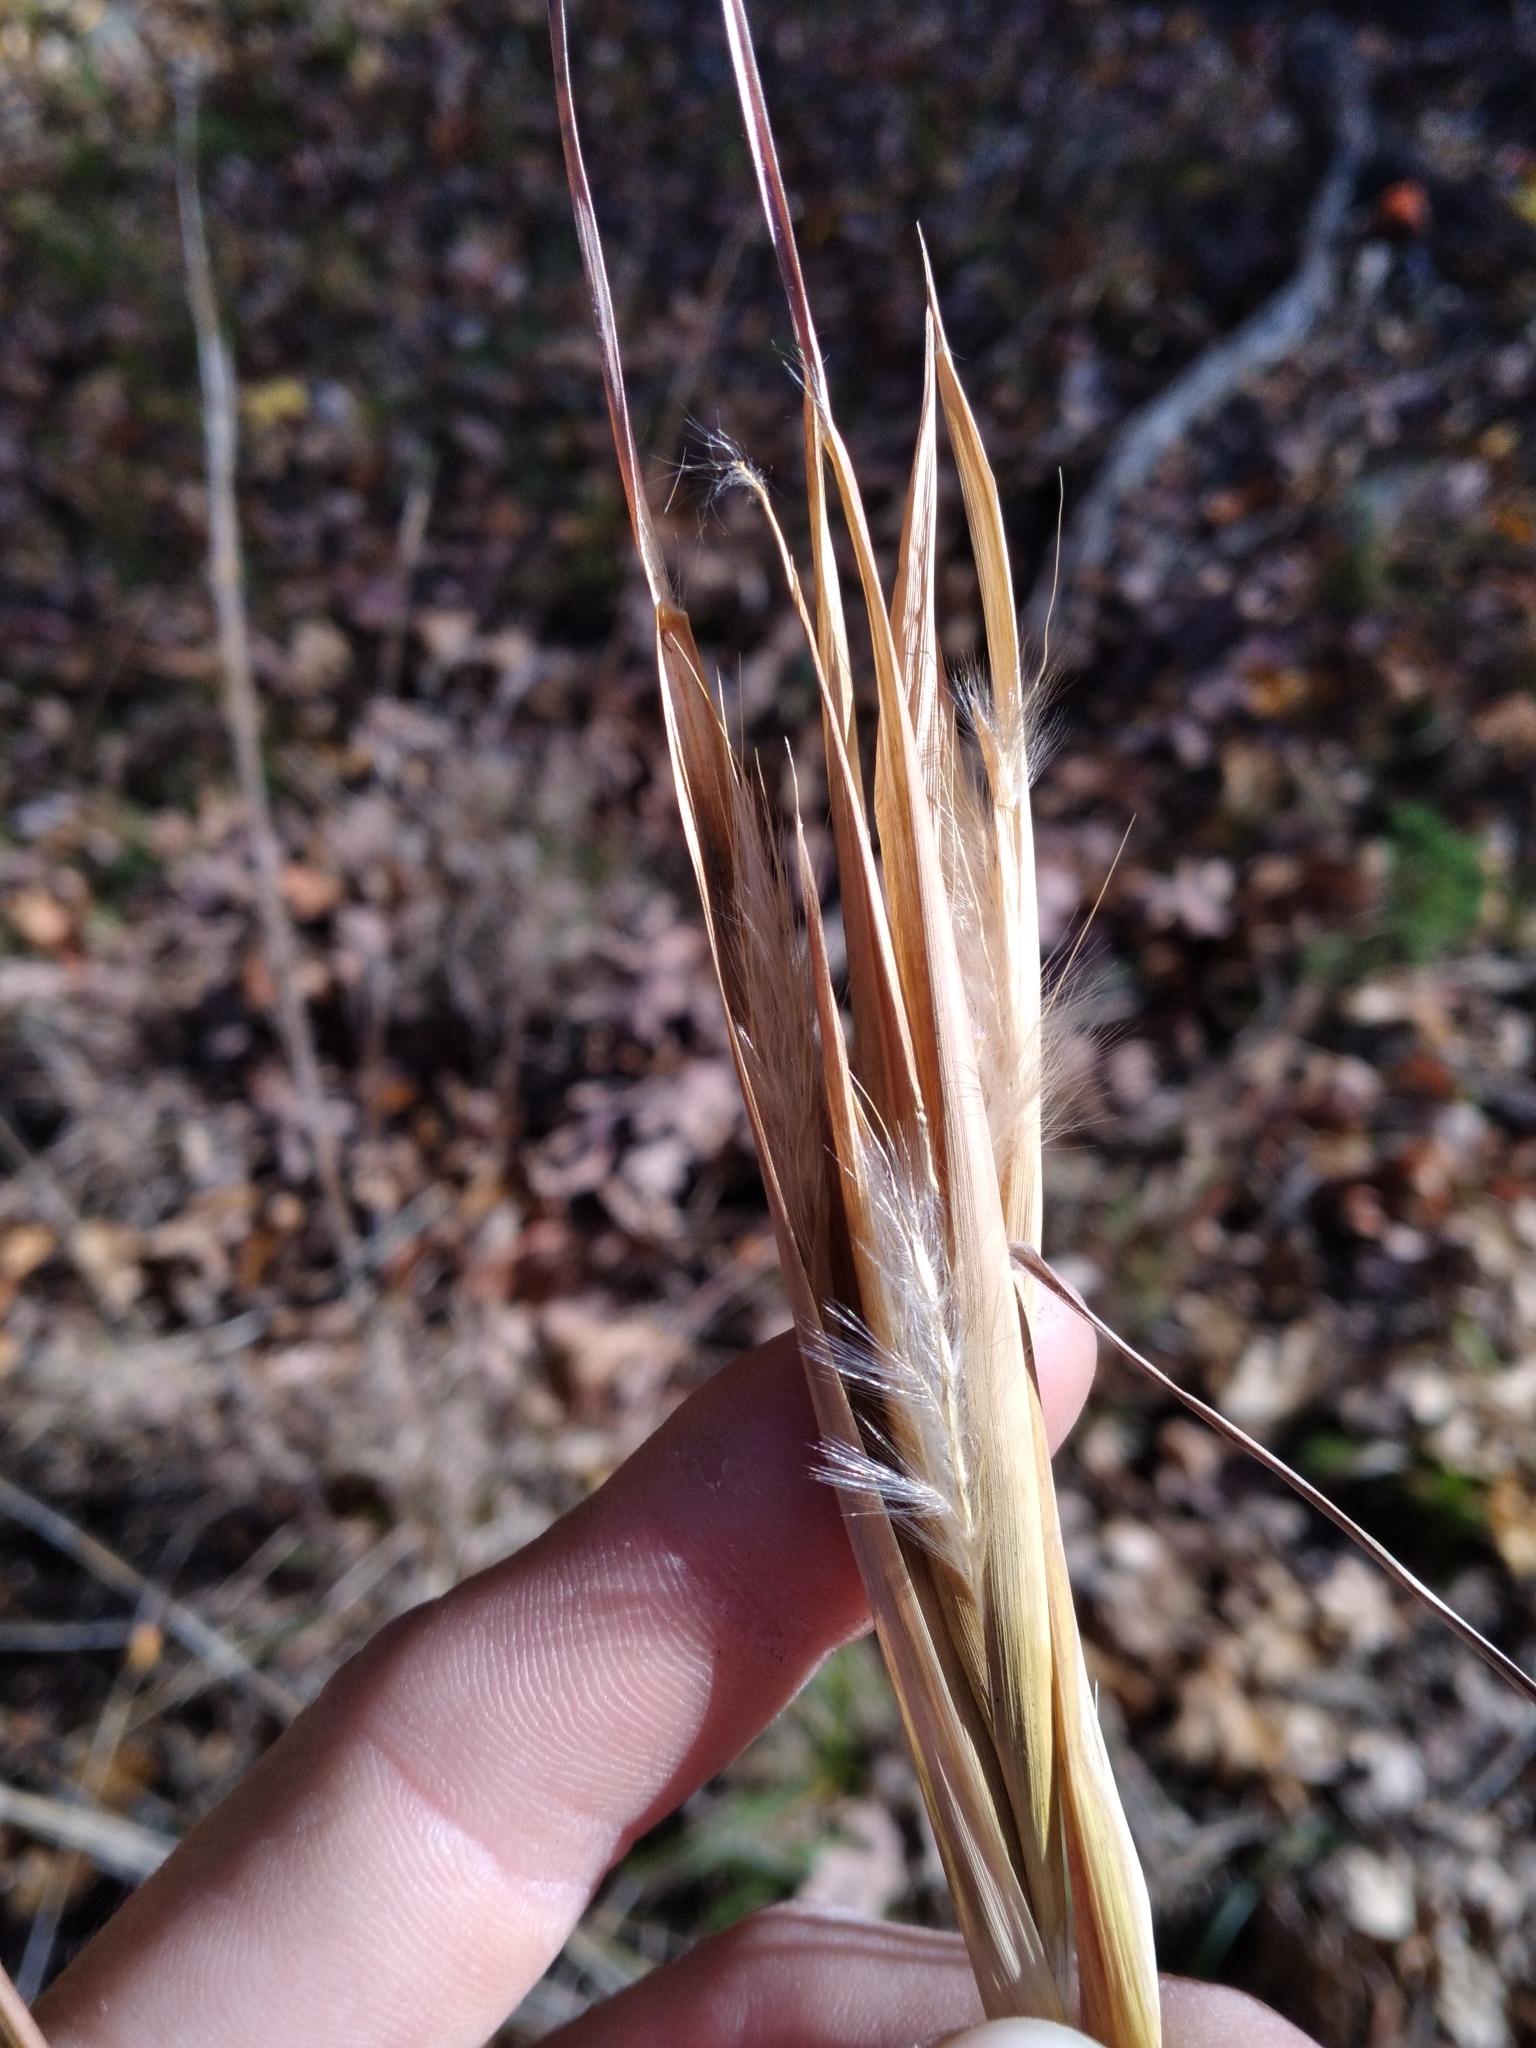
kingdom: Plantae
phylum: Tracheophyta
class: Liliopsida
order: Poales
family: Poaceae
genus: Andropogon
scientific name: Andropogon gyrans
